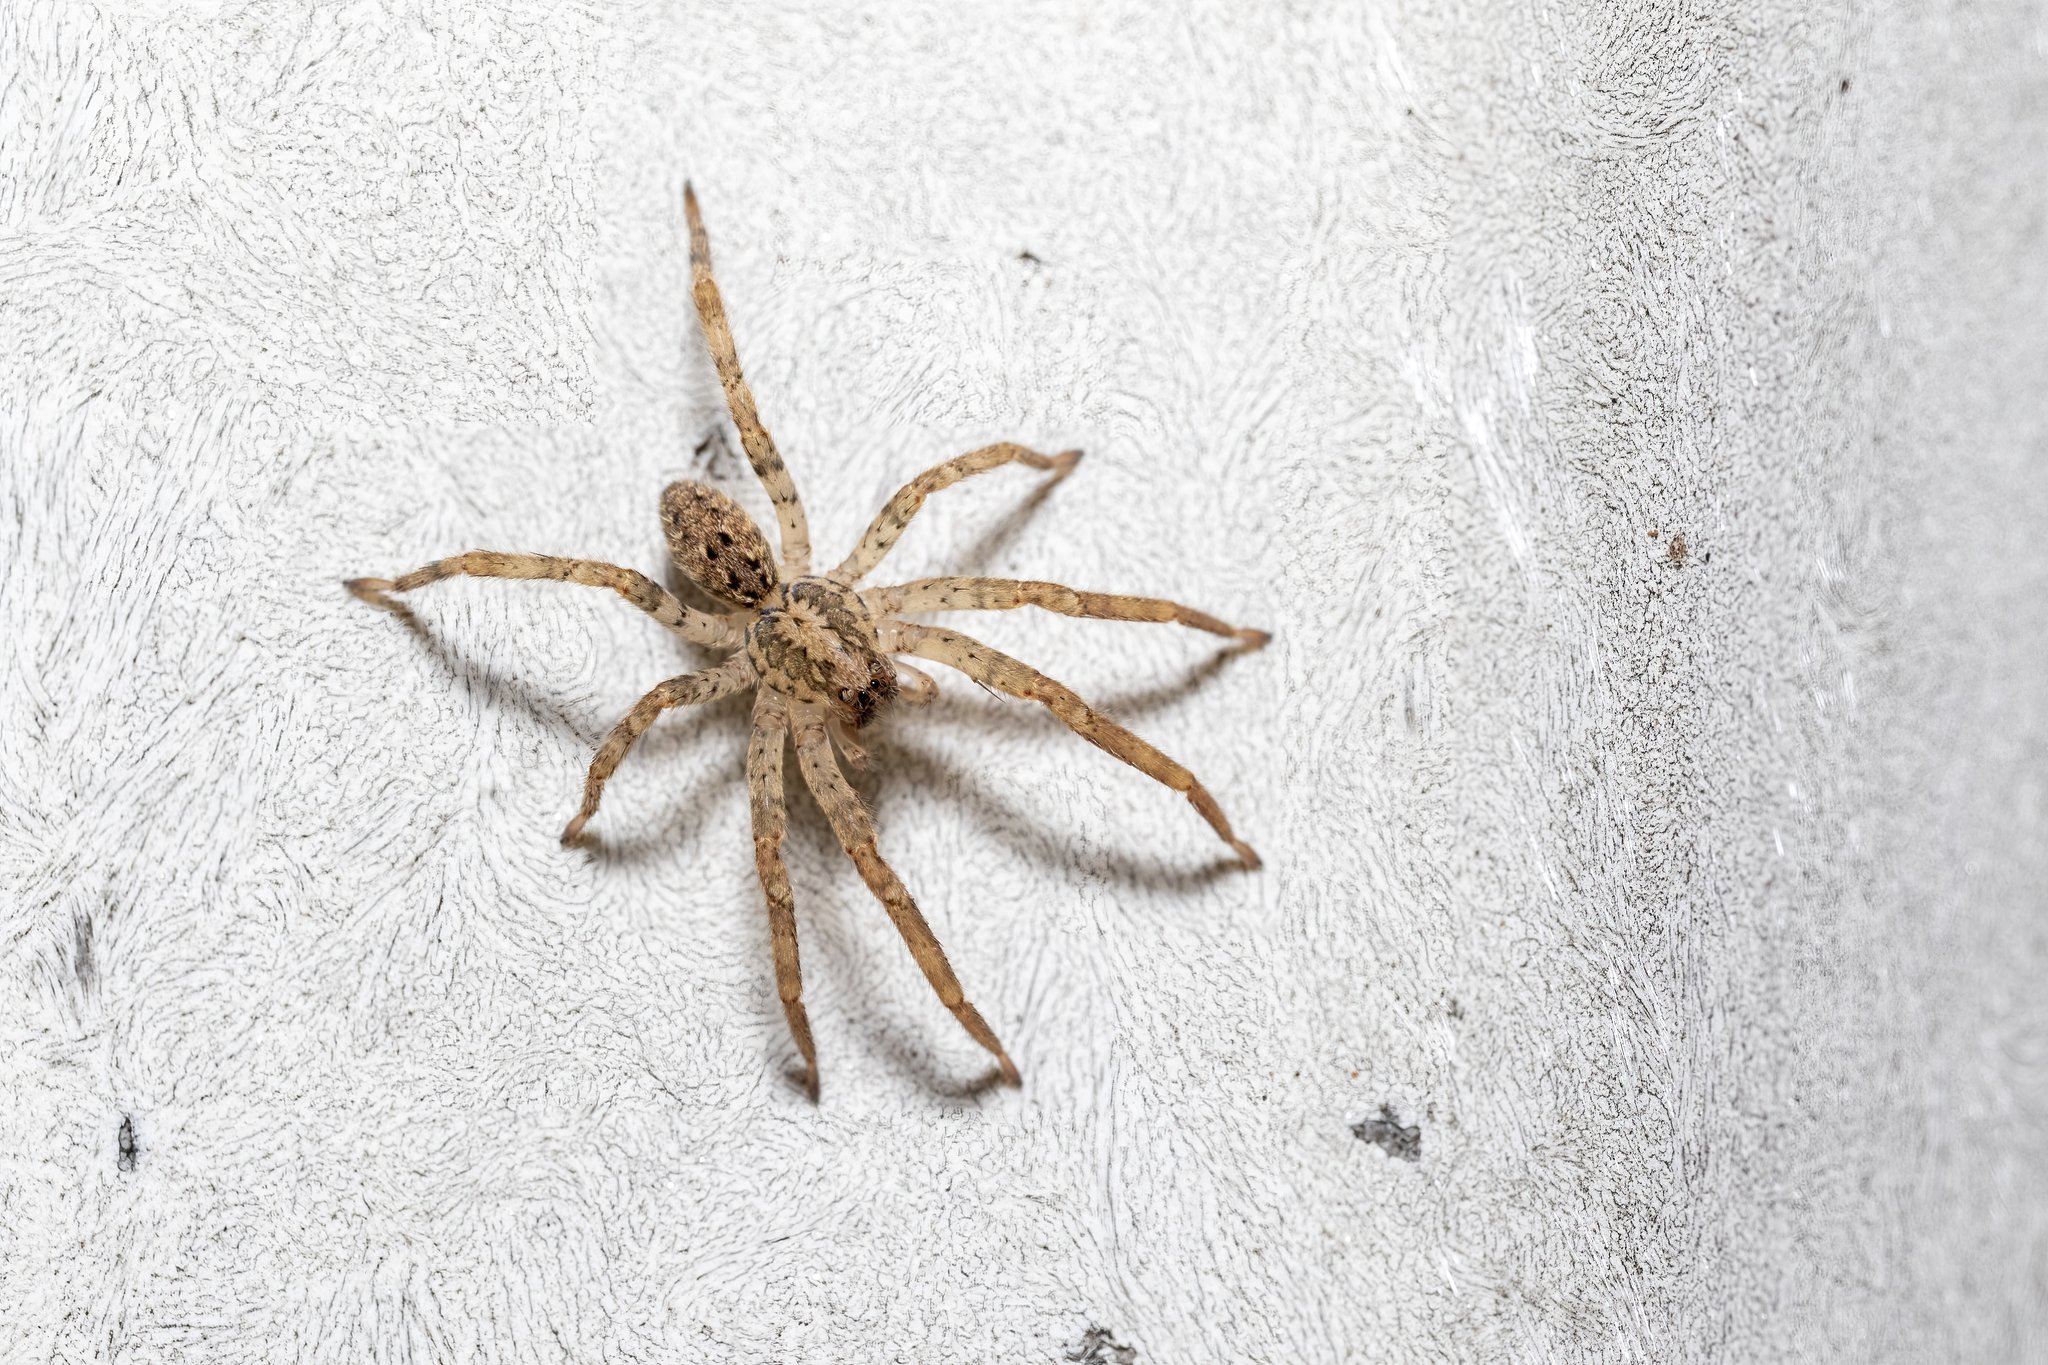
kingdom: Animalia
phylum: Arthropoda
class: Arachnida
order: Araneae
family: Zoropsidae
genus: Zoropsis
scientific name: Zoropsis spinimana
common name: Zoropsid spider
